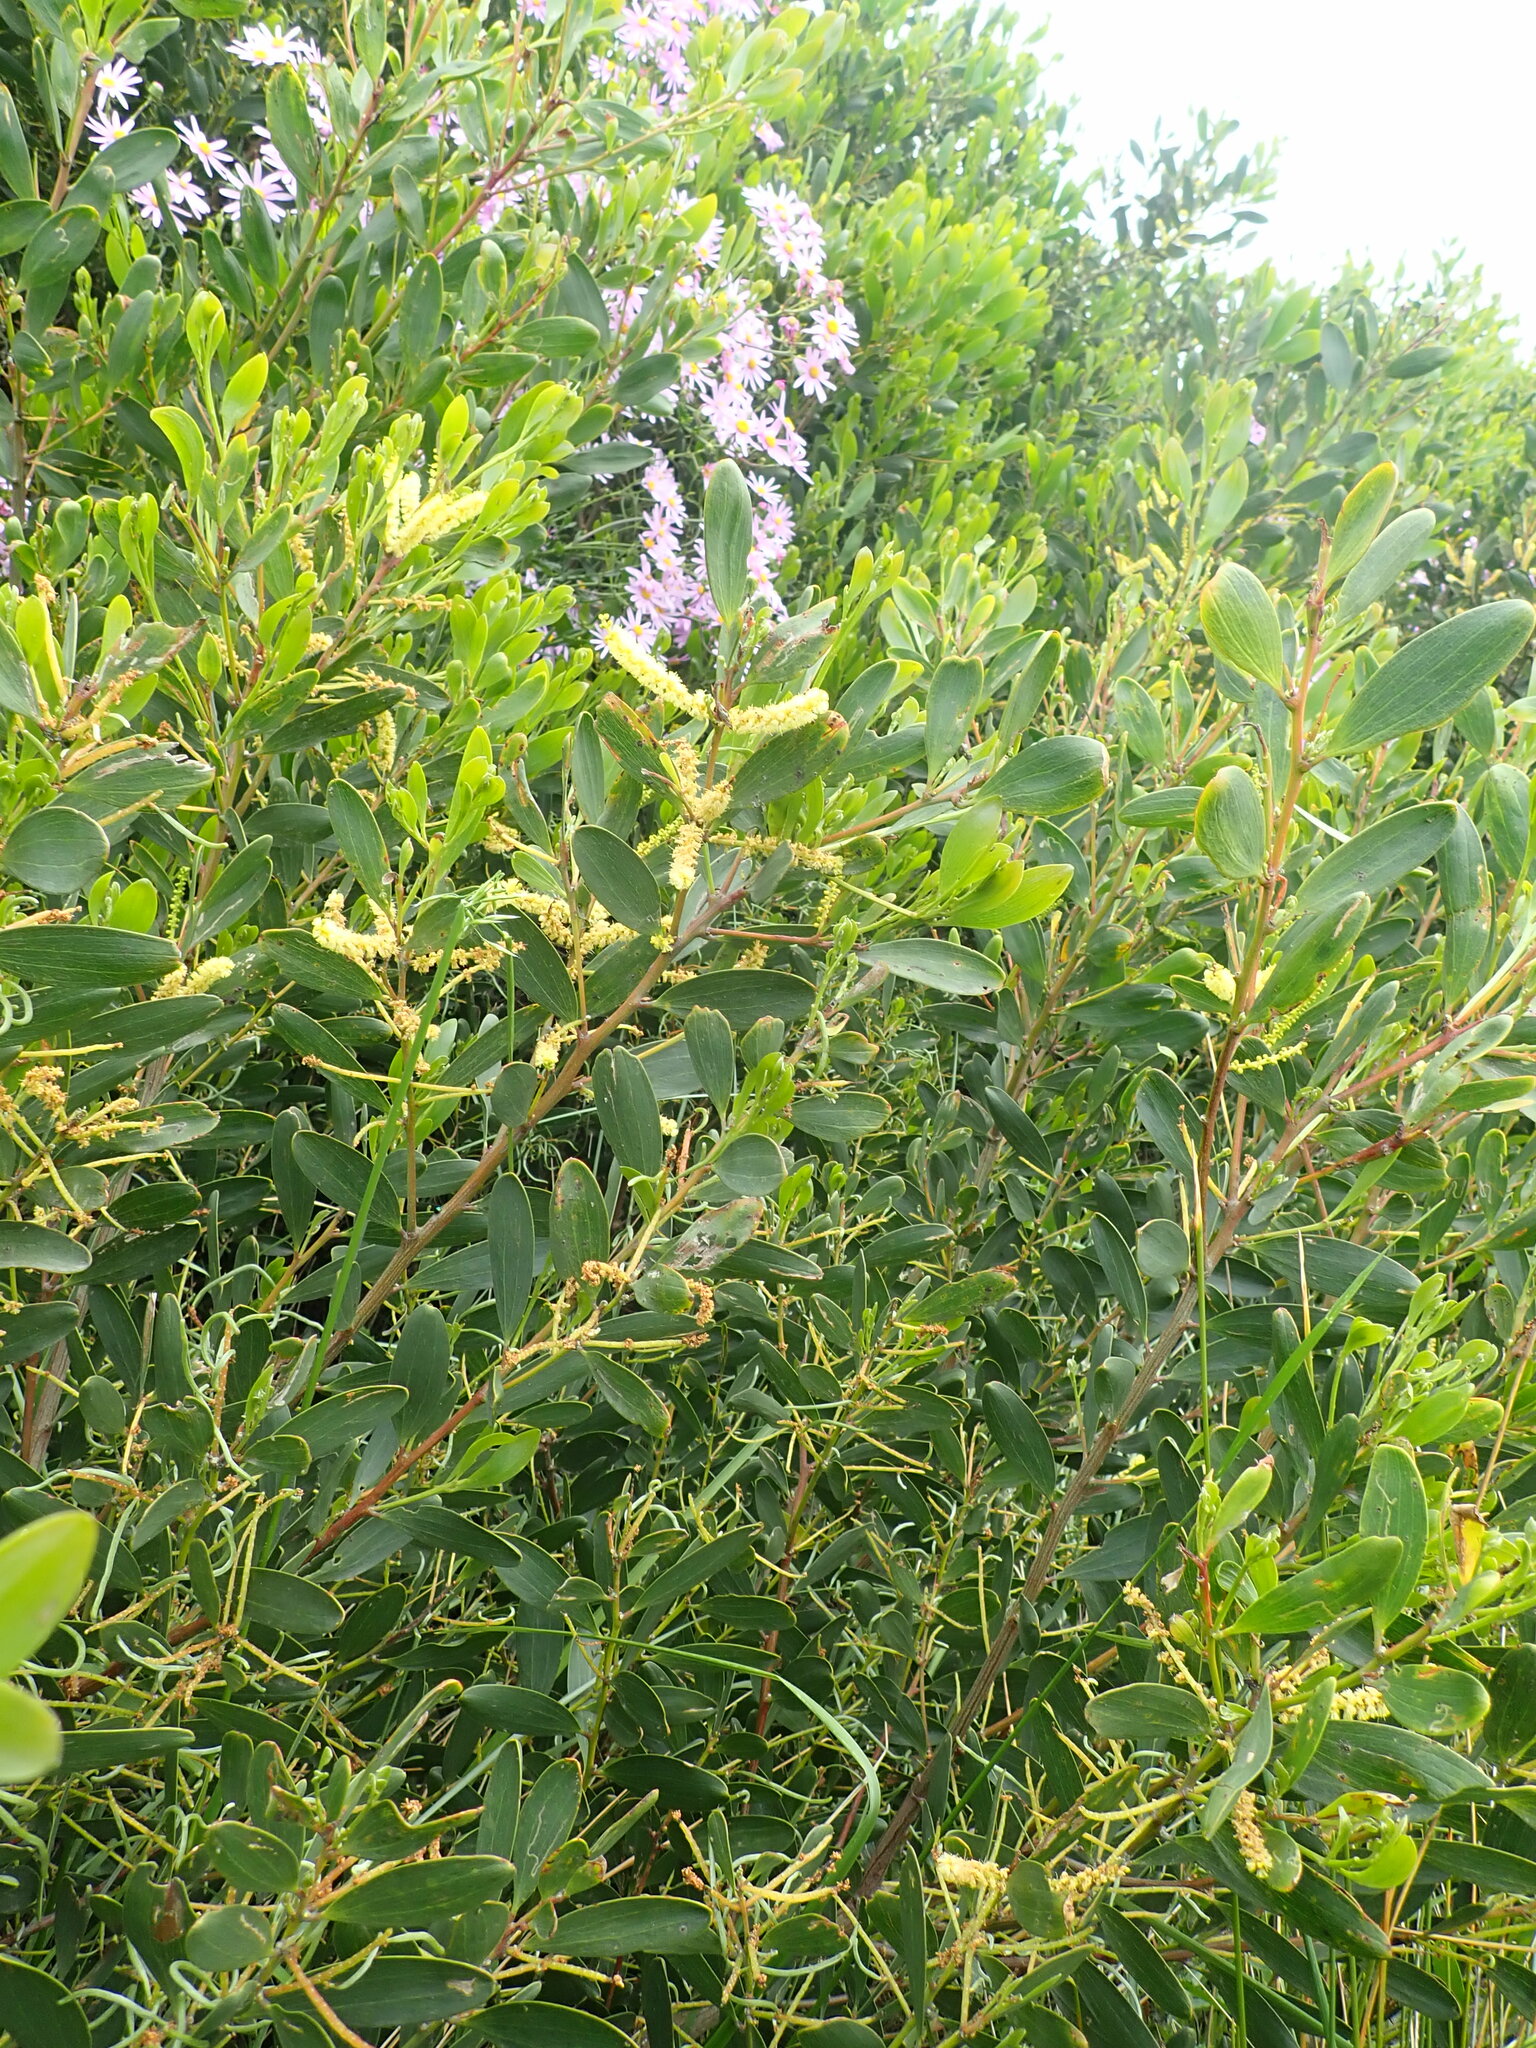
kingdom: Plantae
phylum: Tracheophyta
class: Magnoliopsida
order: Fabales
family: Fabaceae
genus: Acacia
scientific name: Acacia longifolia
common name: Sydney golden wattle
